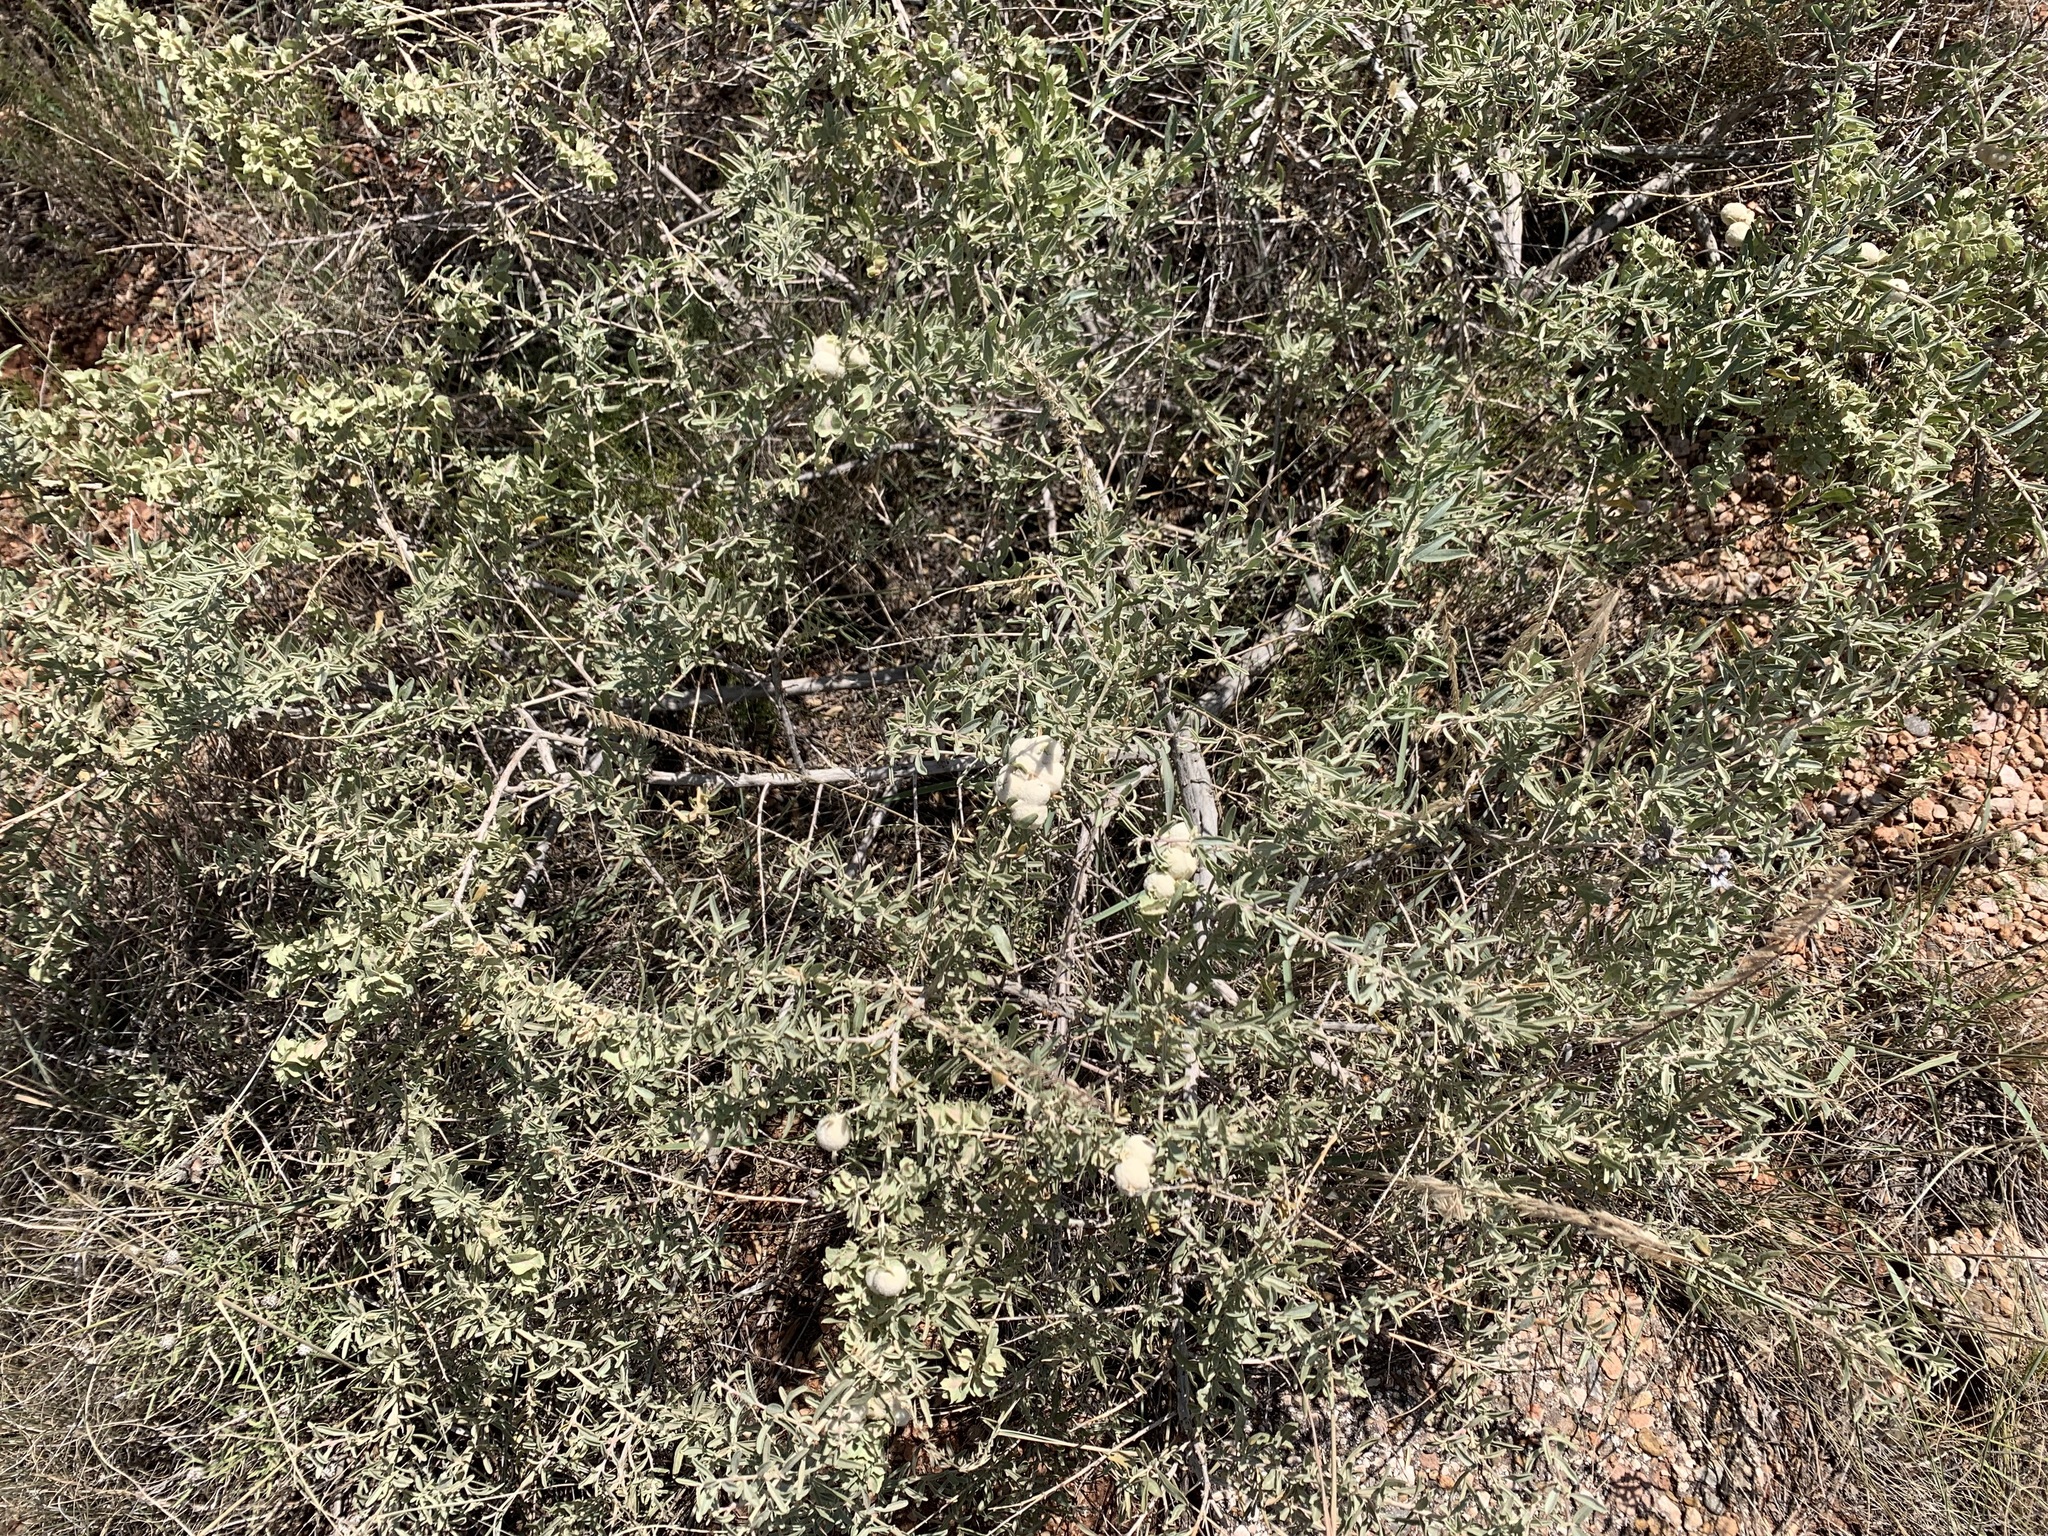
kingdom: Plantae
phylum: Tracheophyta
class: Magnoliopsida
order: Caryophyllales
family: Amaranthaceae
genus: Atriplex
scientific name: Atriplex canescens
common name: Four-wing saltbush
